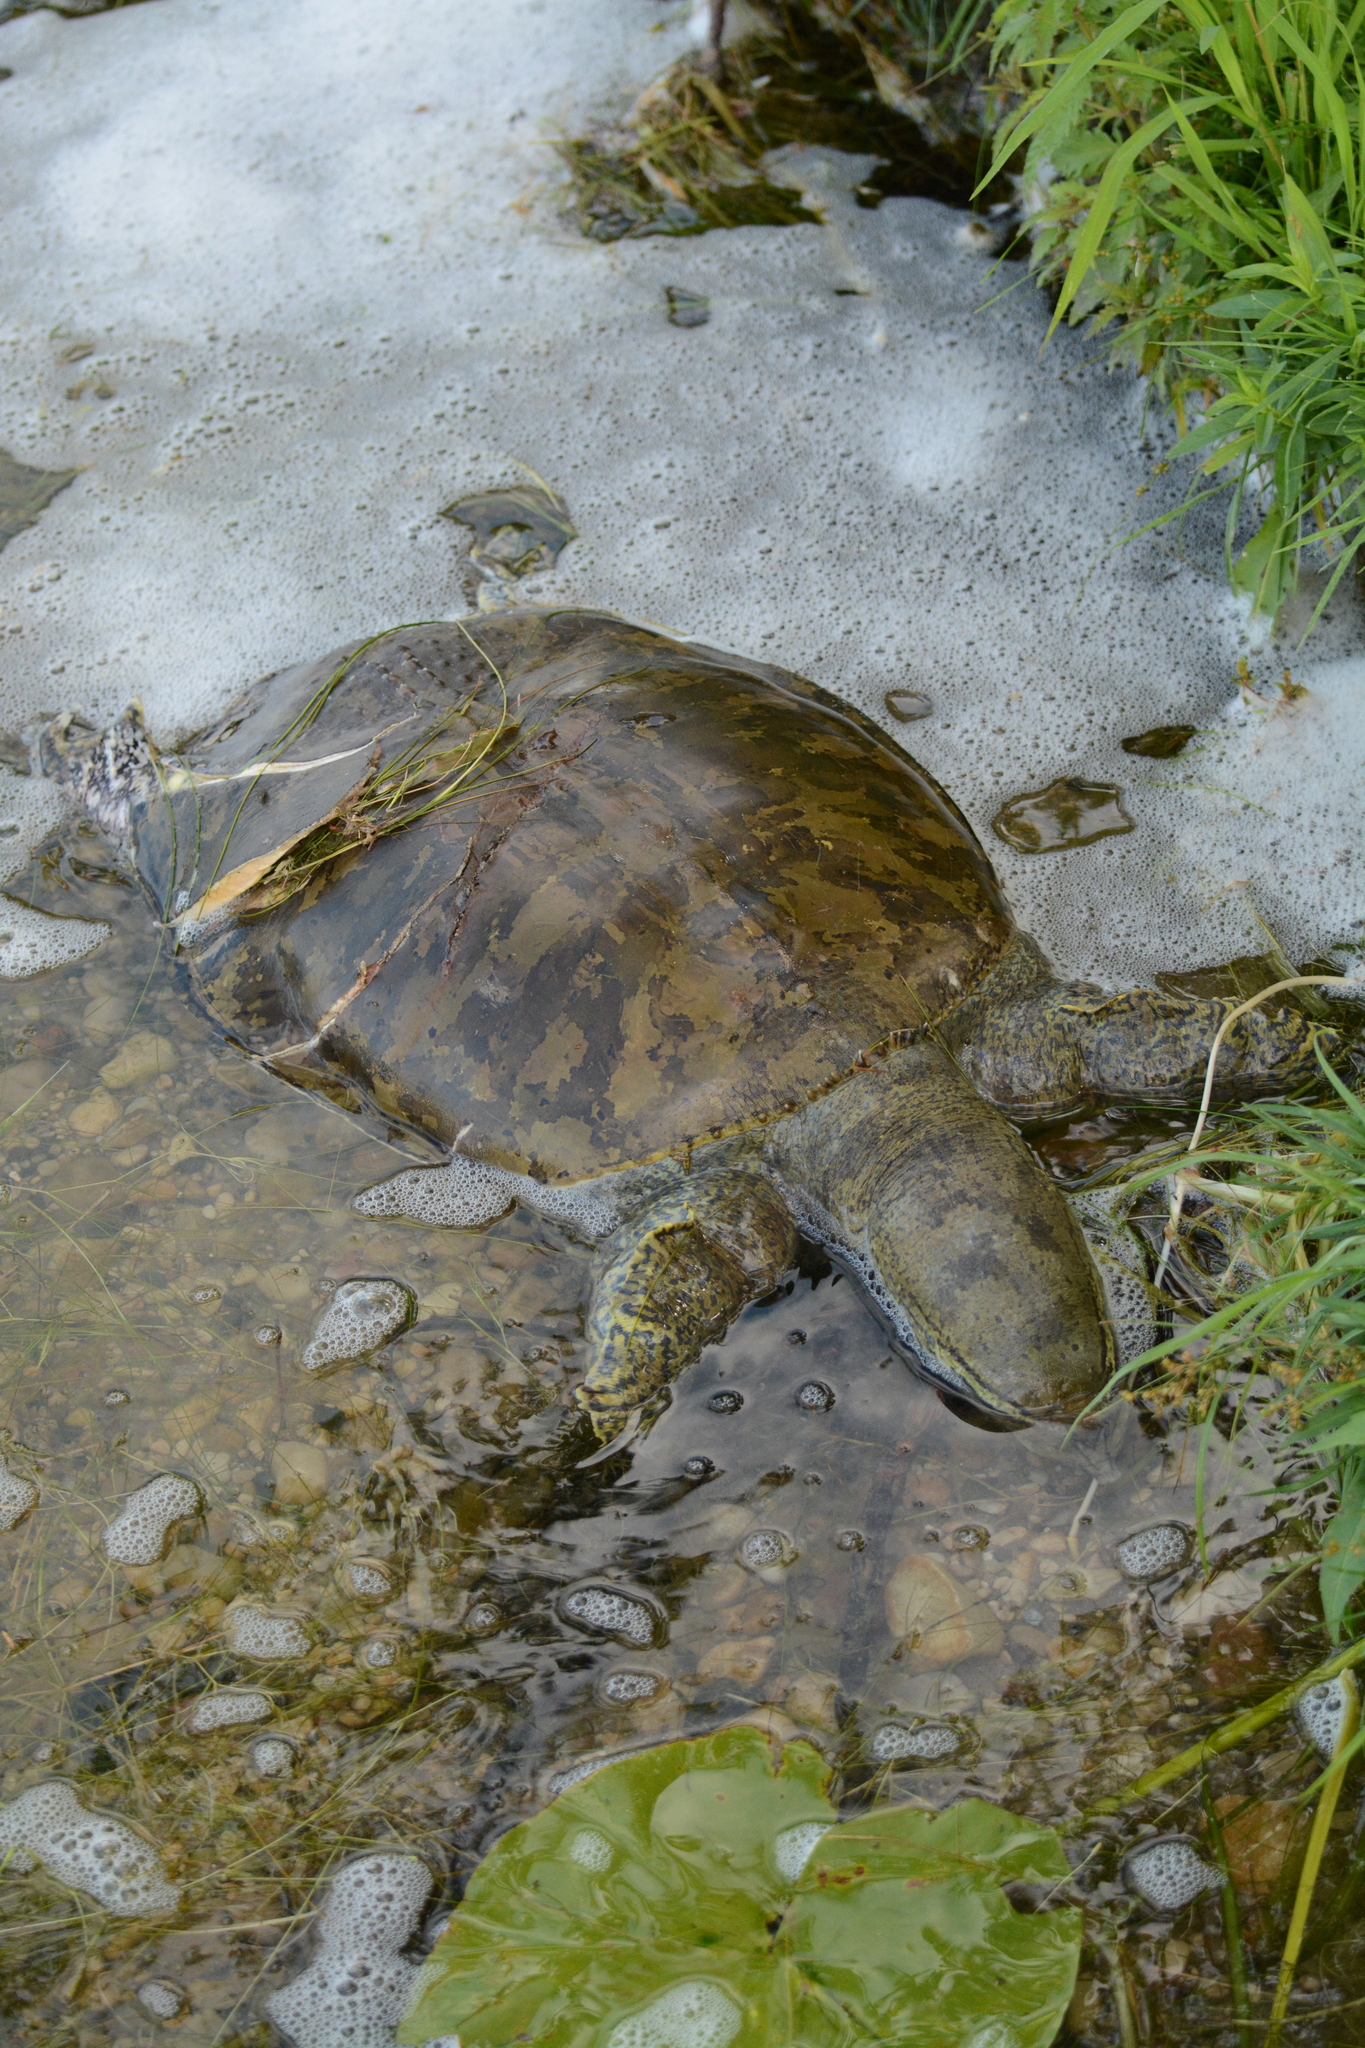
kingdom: Animalia
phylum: Chordata
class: Testudines
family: Trionychidae
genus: Apalone
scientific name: Apalone spinifera
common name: Spiny softshell turtle
